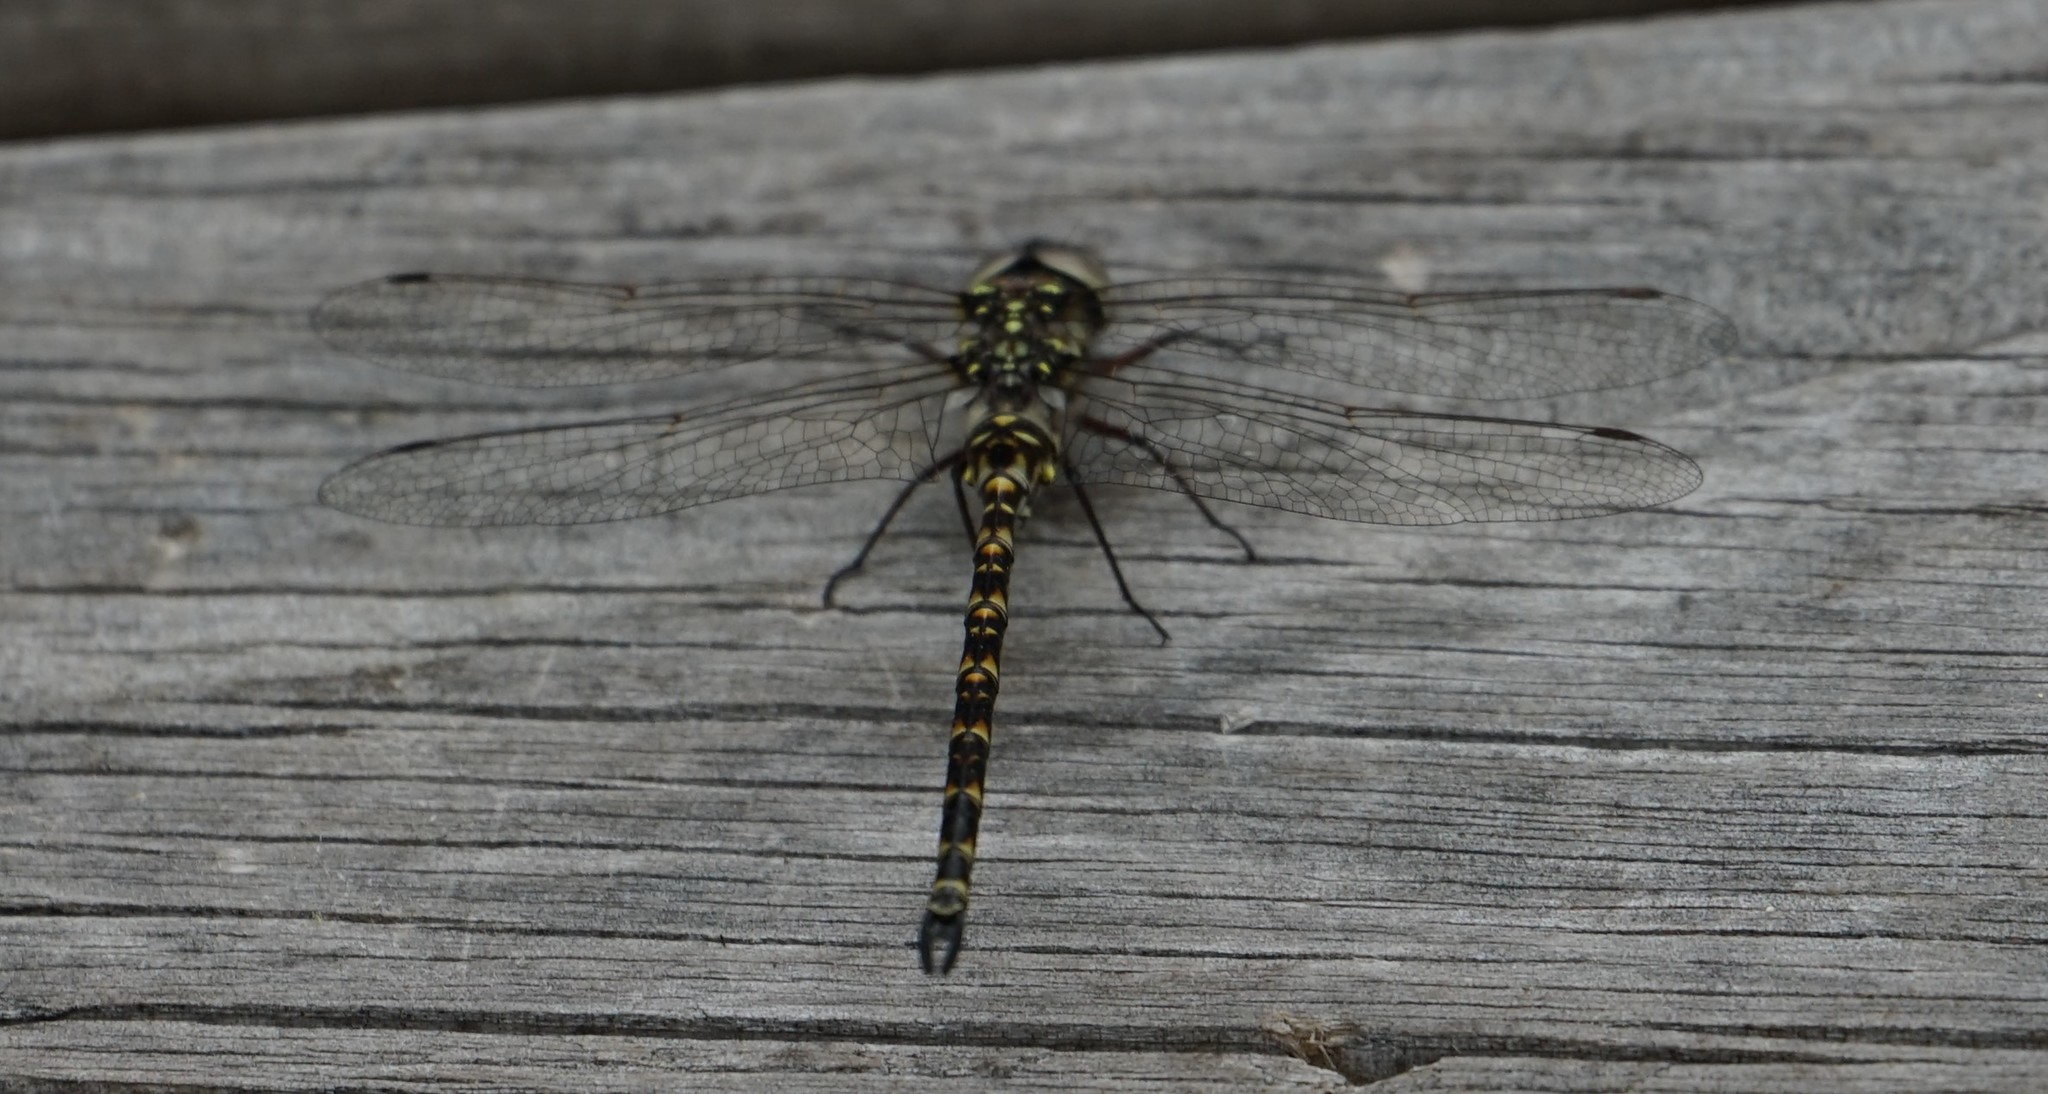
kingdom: Animalia
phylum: Arthropoda
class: Insecta
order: Odonata
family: Aeshnidae
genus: Gomphaeschna
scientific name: Gomphaeschna furcillata
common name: Harlequin darner
